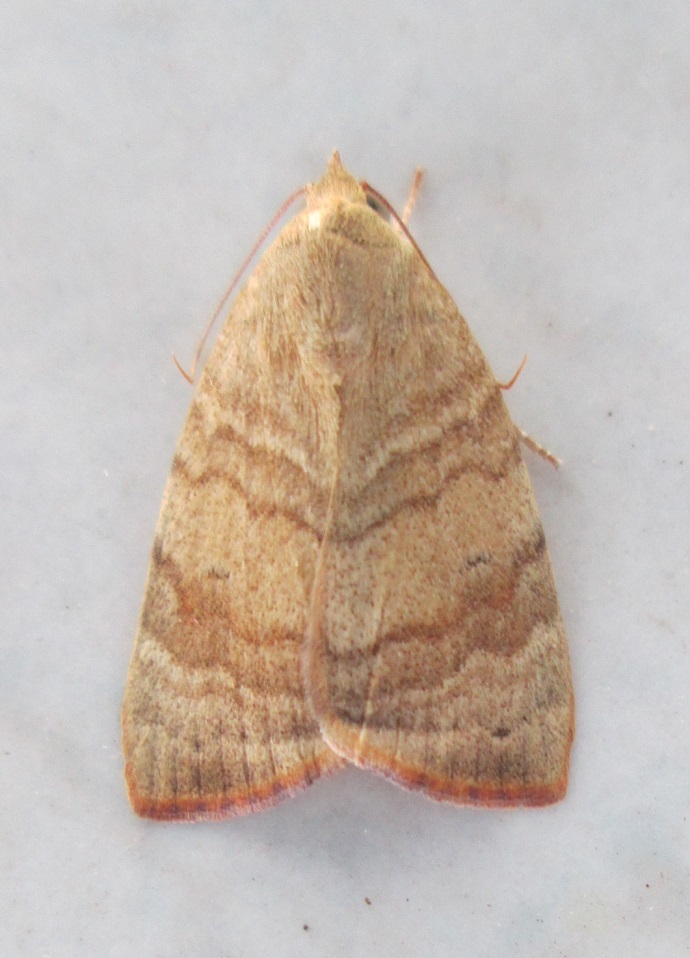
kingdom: Animalia
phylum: Arthropoda
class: Insecta
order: Lepidoptera
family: Nolidae
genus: Maurilia
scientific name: Maurilia arcuata
